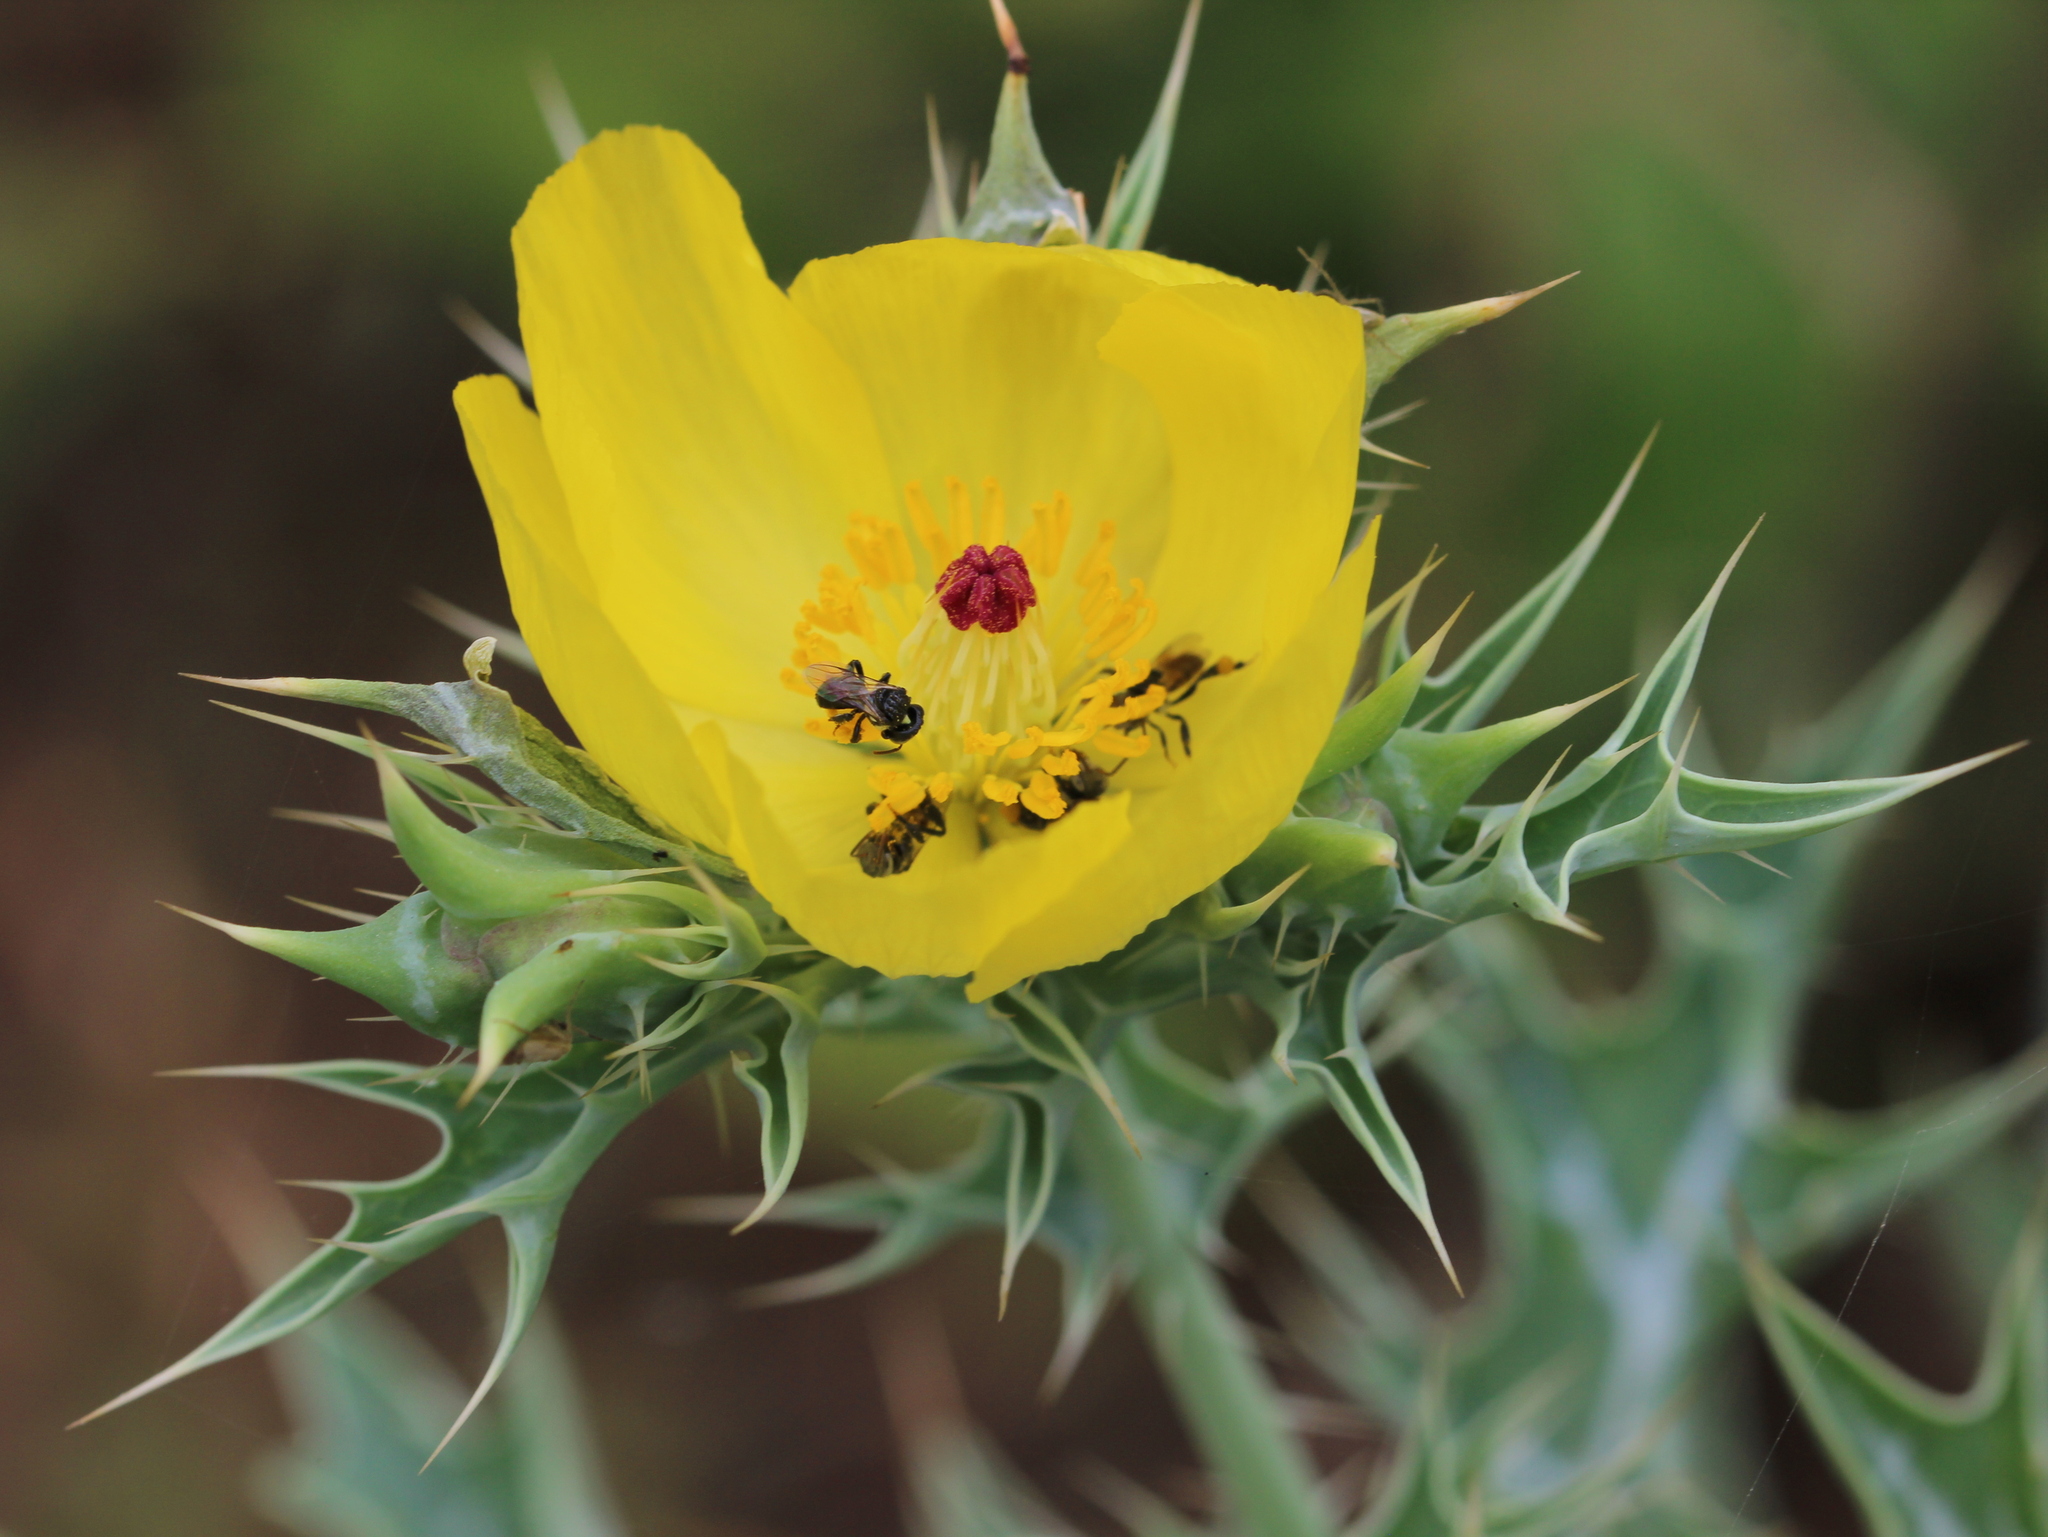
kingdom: Plantae
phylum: Tracheophyta
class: Magnoliopsida
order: Ranunculales
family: Papaveraceae
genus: Argemone
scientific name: Argemone mexicana
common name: Mexican poppy
